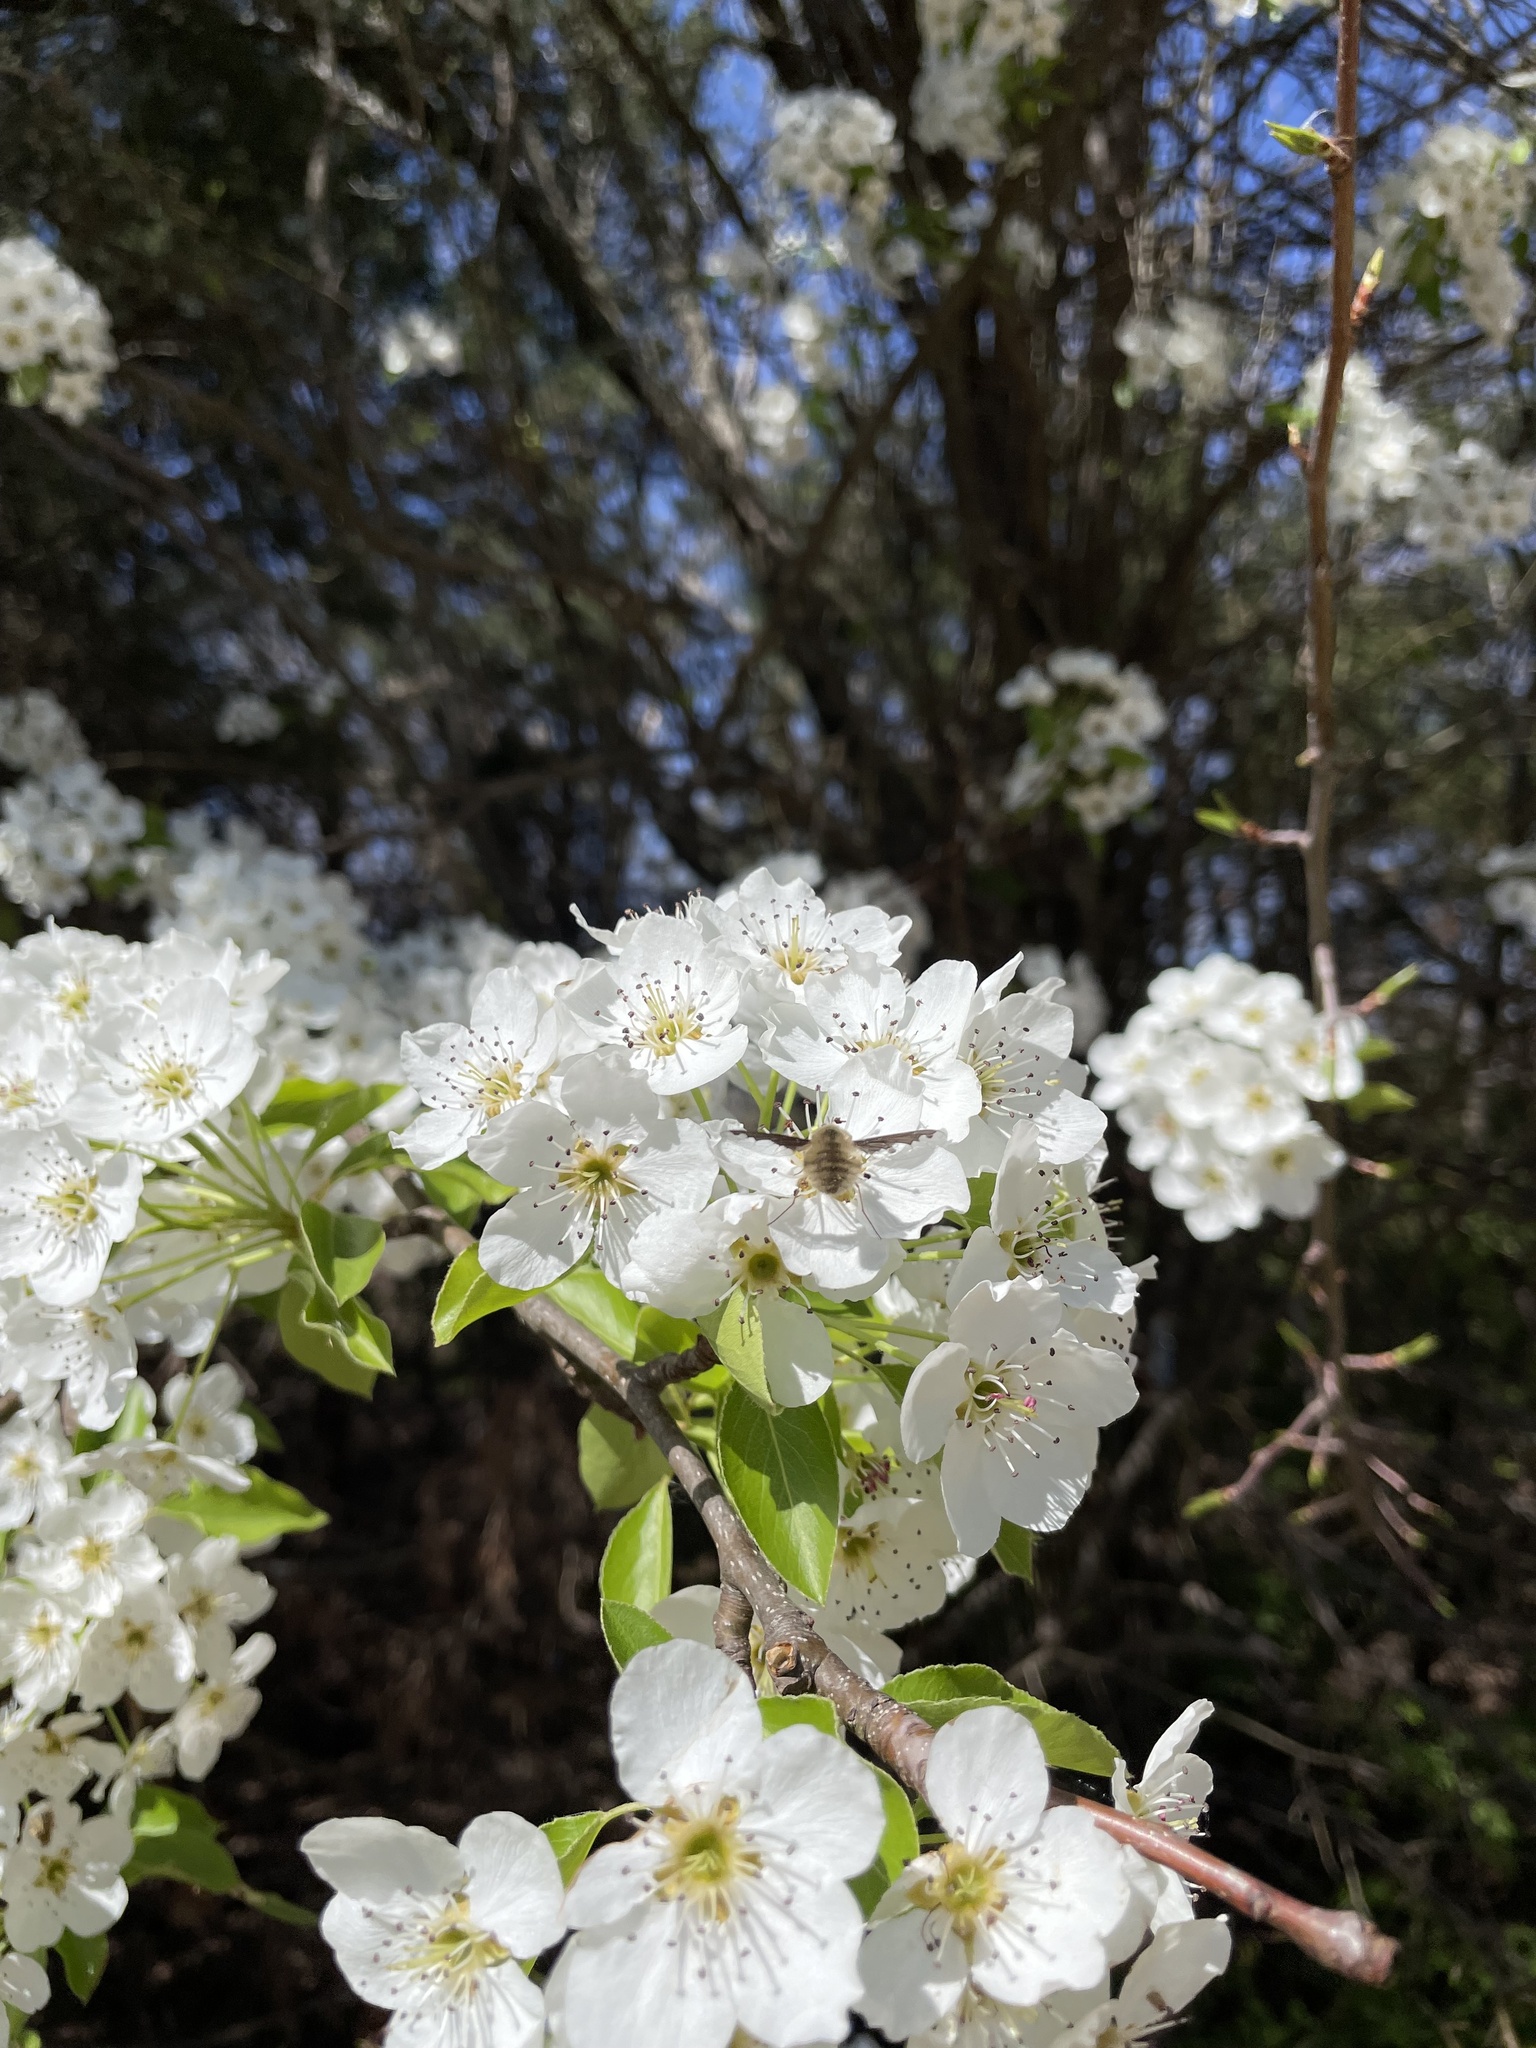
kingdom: Animalia
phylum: Arthropoda
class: Insecta
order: Diptera
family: Bombyliidae
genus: Bombylius
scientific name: Bombylius major
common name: Bee fly
